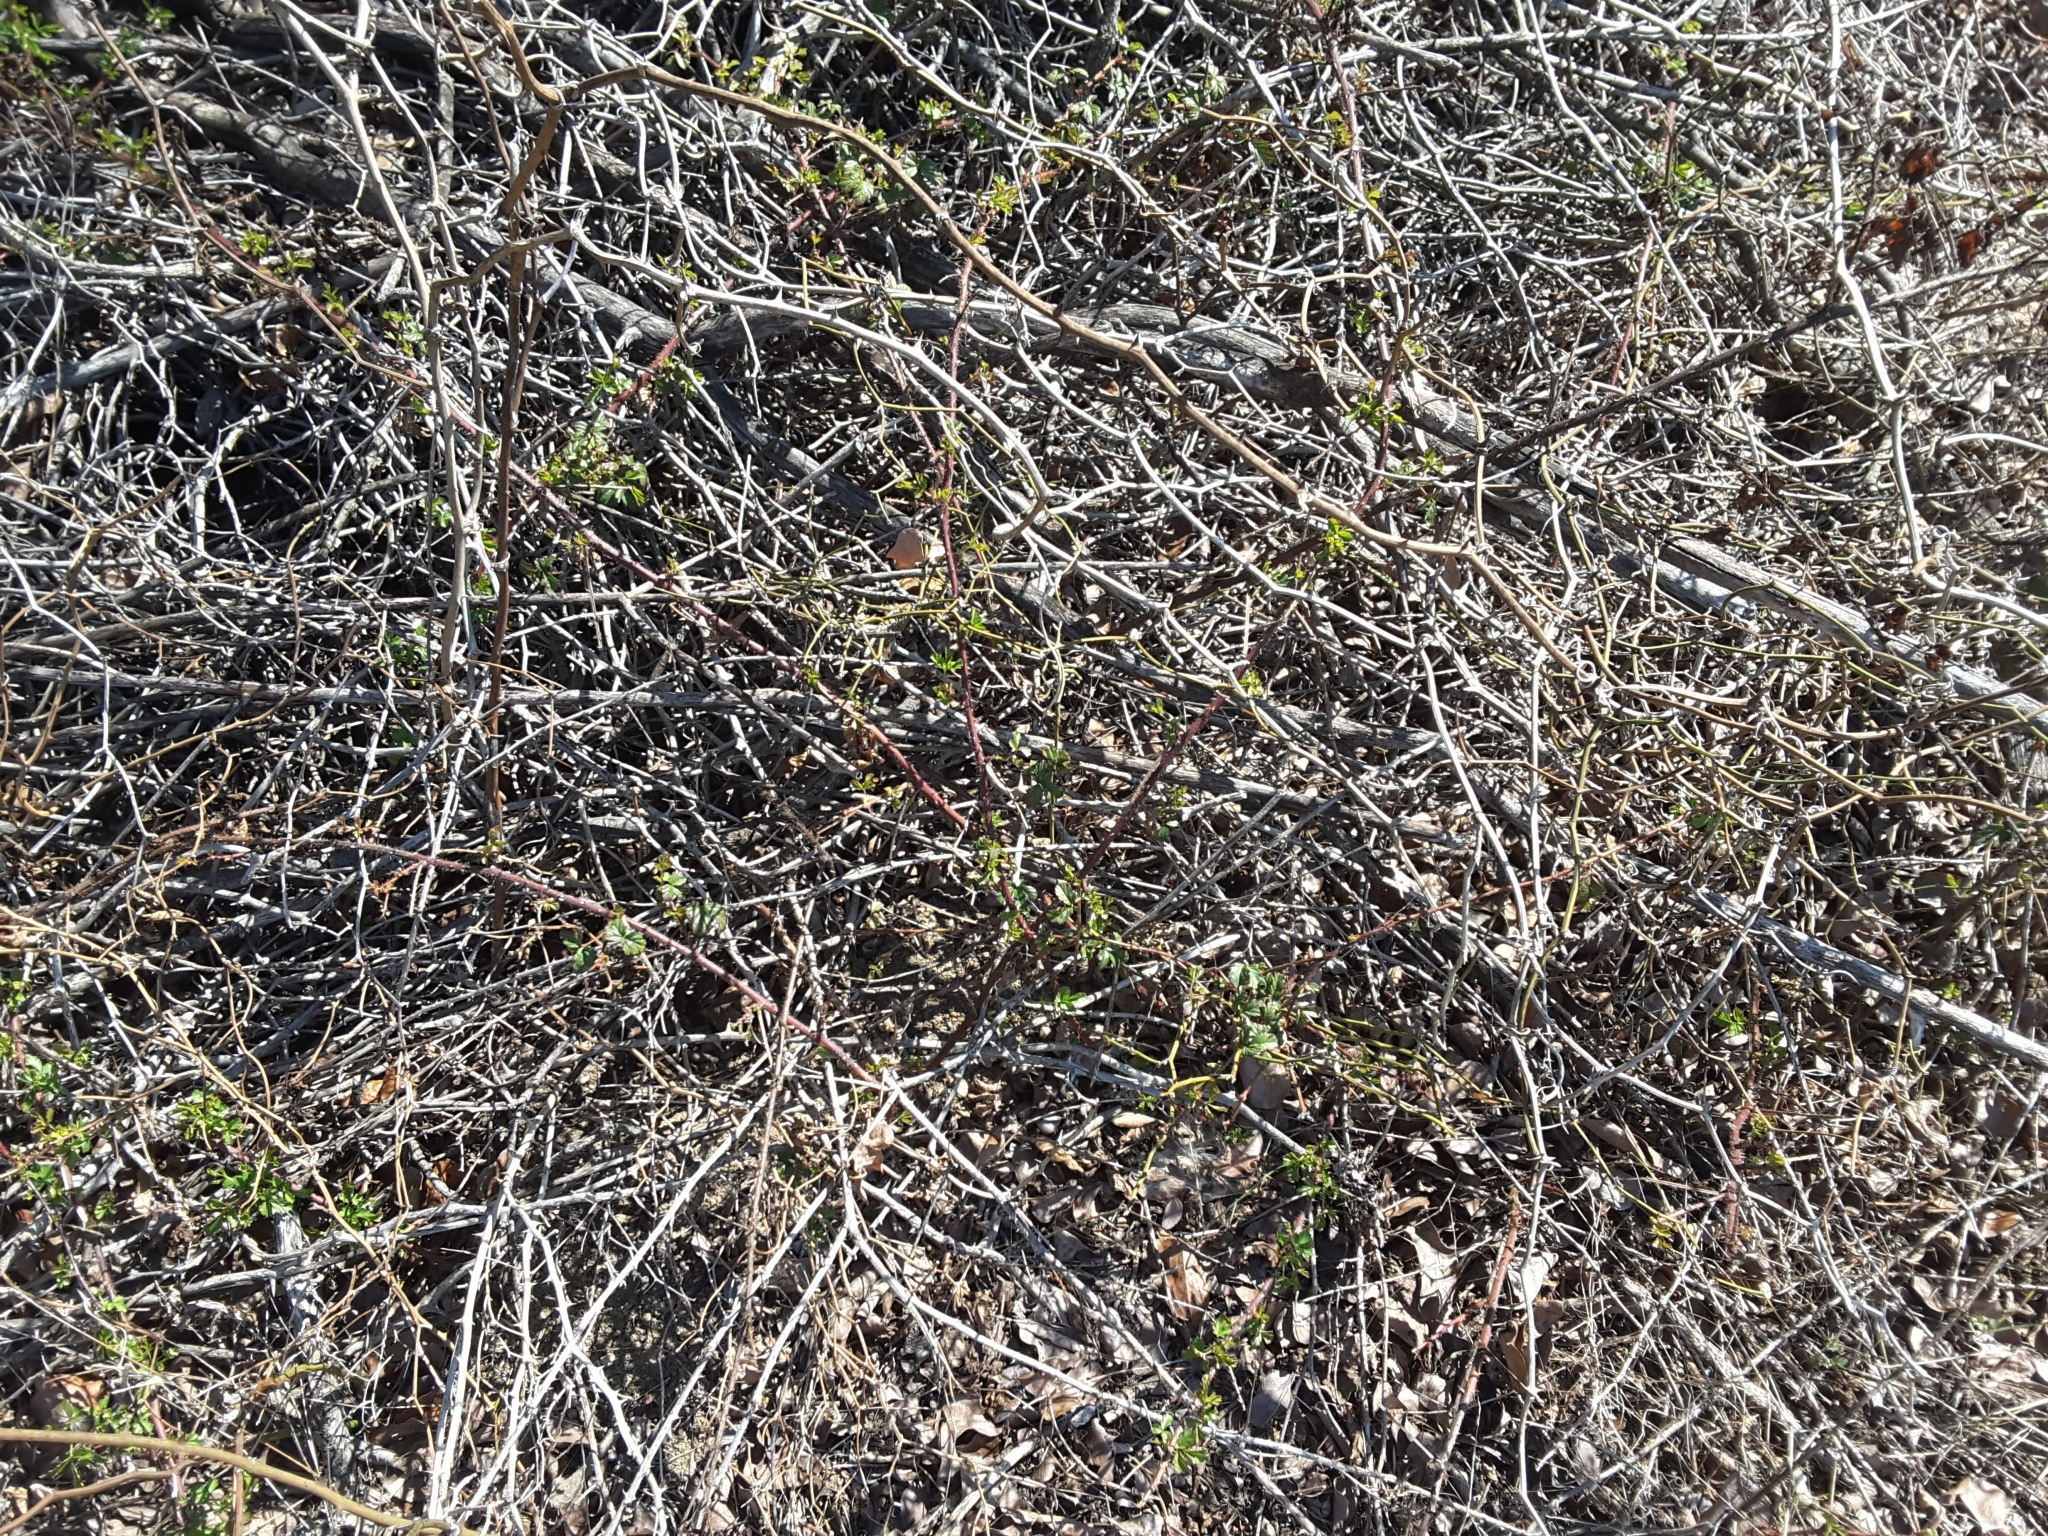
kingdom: Plantae
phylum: Tracheophyta
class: Magnoliopsida
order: Rosales
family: Rosaceae
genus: Rubus
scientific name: Rubus trivialis
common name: Southern dewberry
